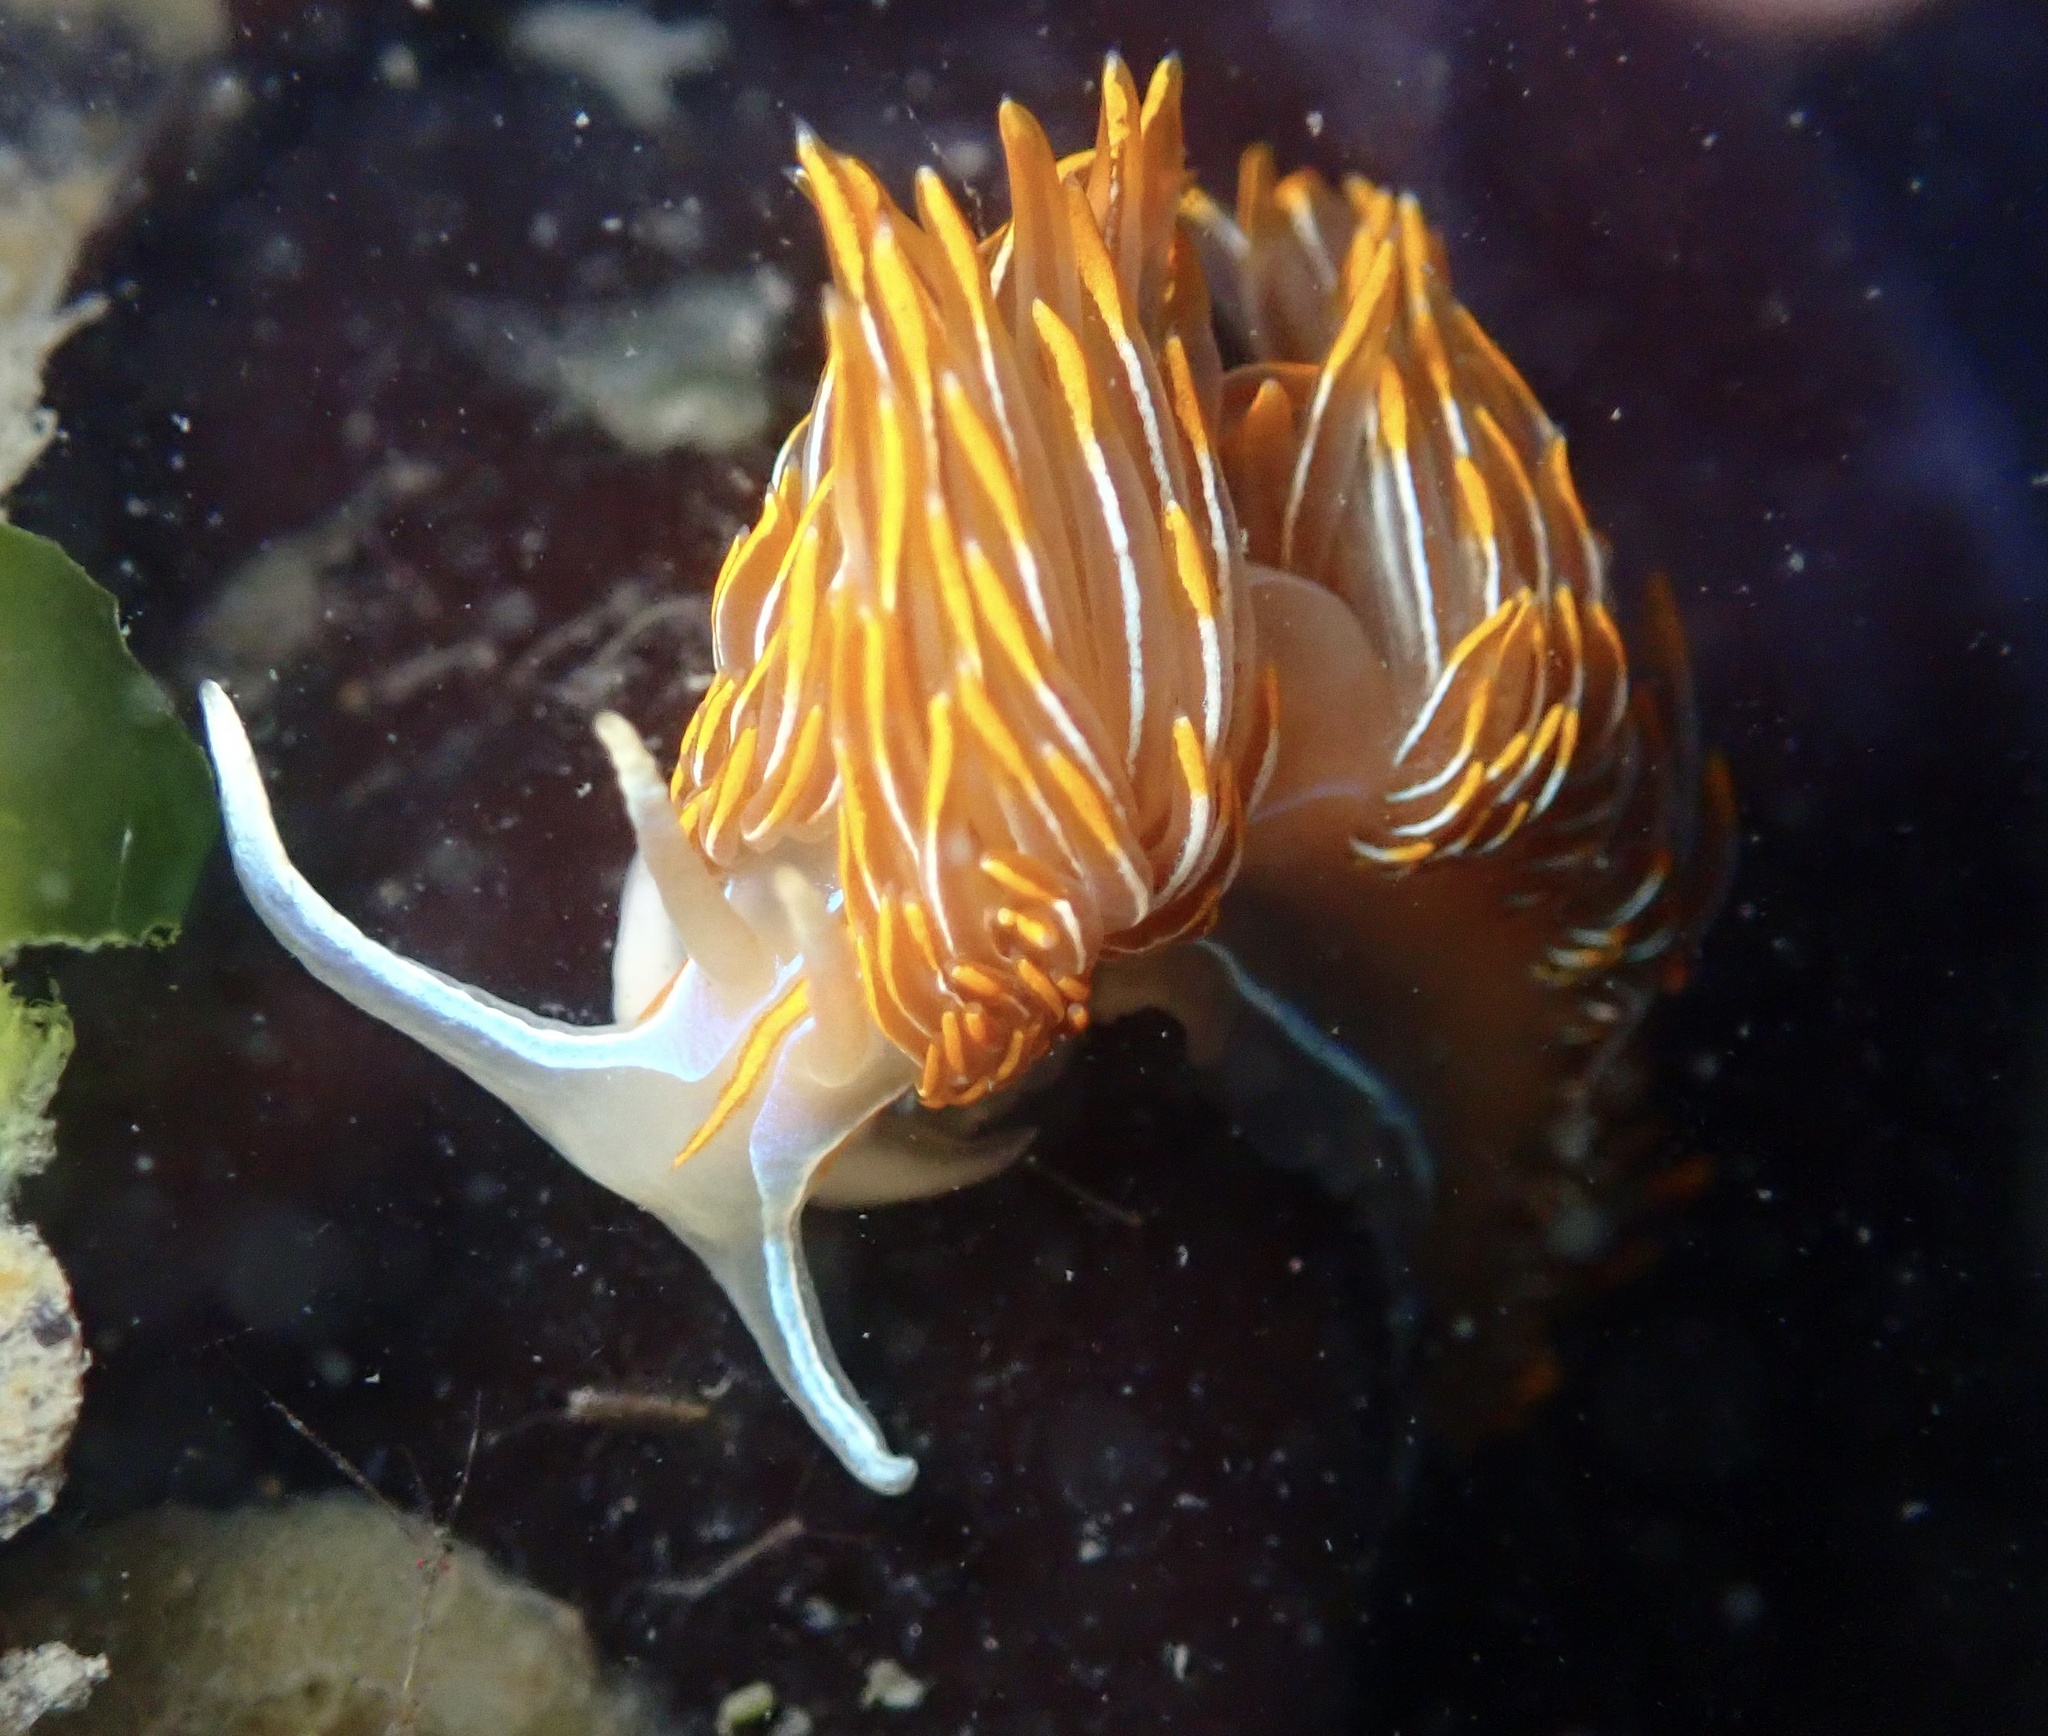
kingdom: Animalia
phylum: Mollusca
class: Gastropoda
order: Nudibranchia
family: Myrrhinidae
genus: Hermissenda
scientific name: Hermissenda crassicornis
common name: Hermissenda
